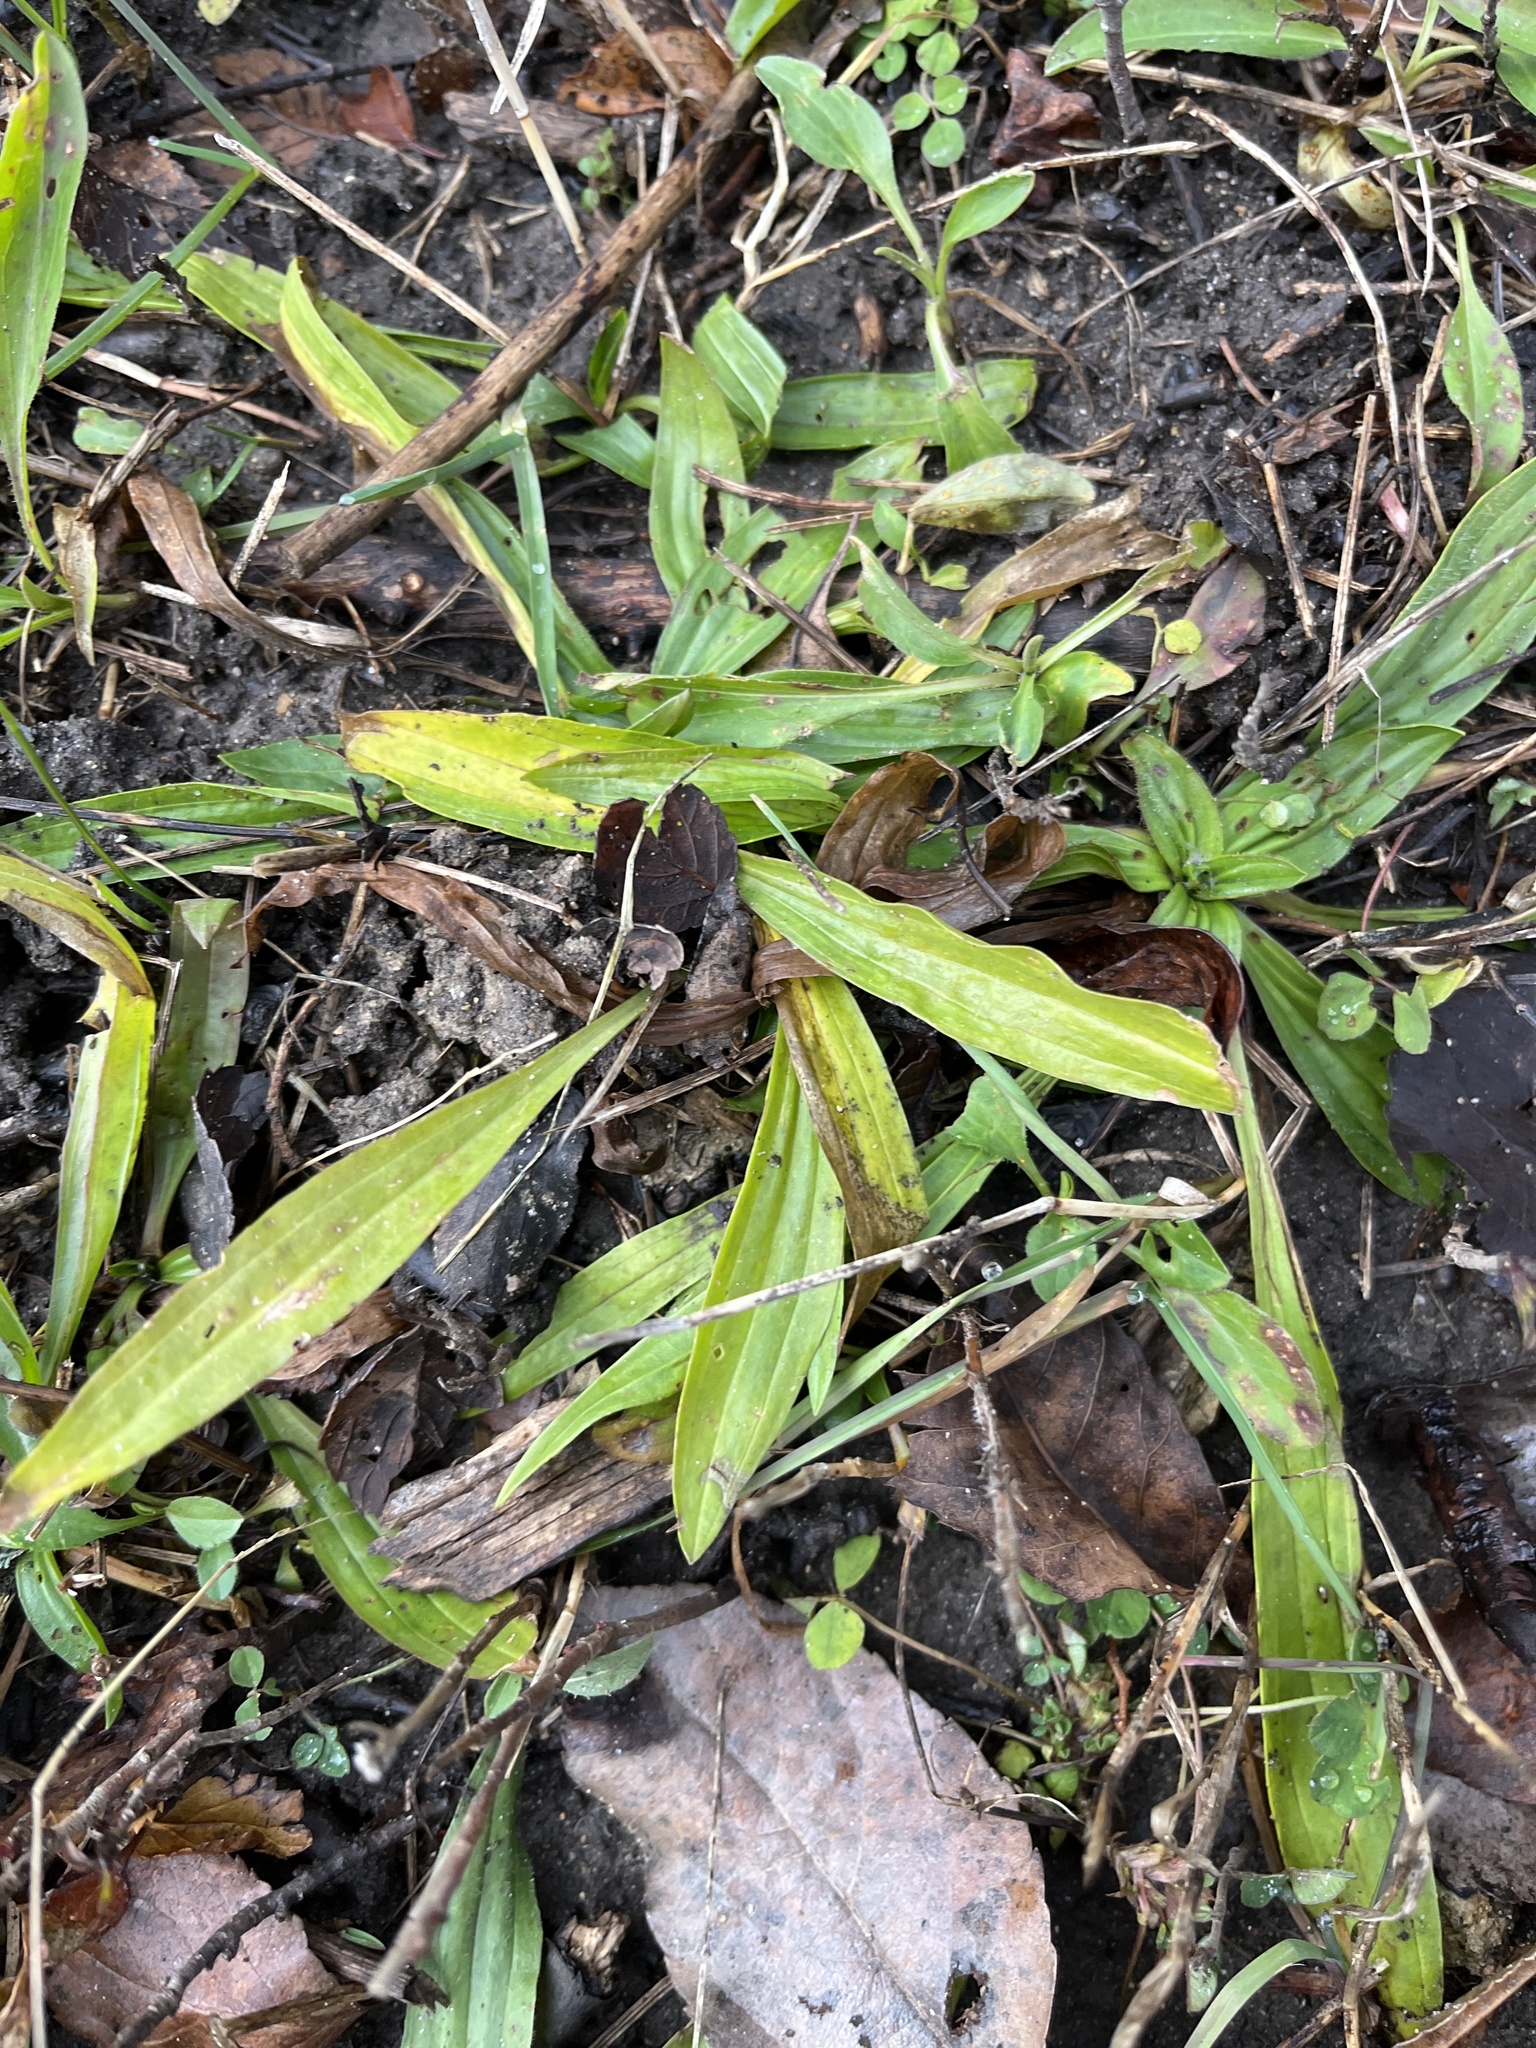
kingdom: Plantae
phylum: Tracheophyta
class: Magnoliopsida
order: Lamiales
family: Plantaginaceae
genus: Plantago
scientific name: Plantago lanceolata
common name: Ribwort plantain
